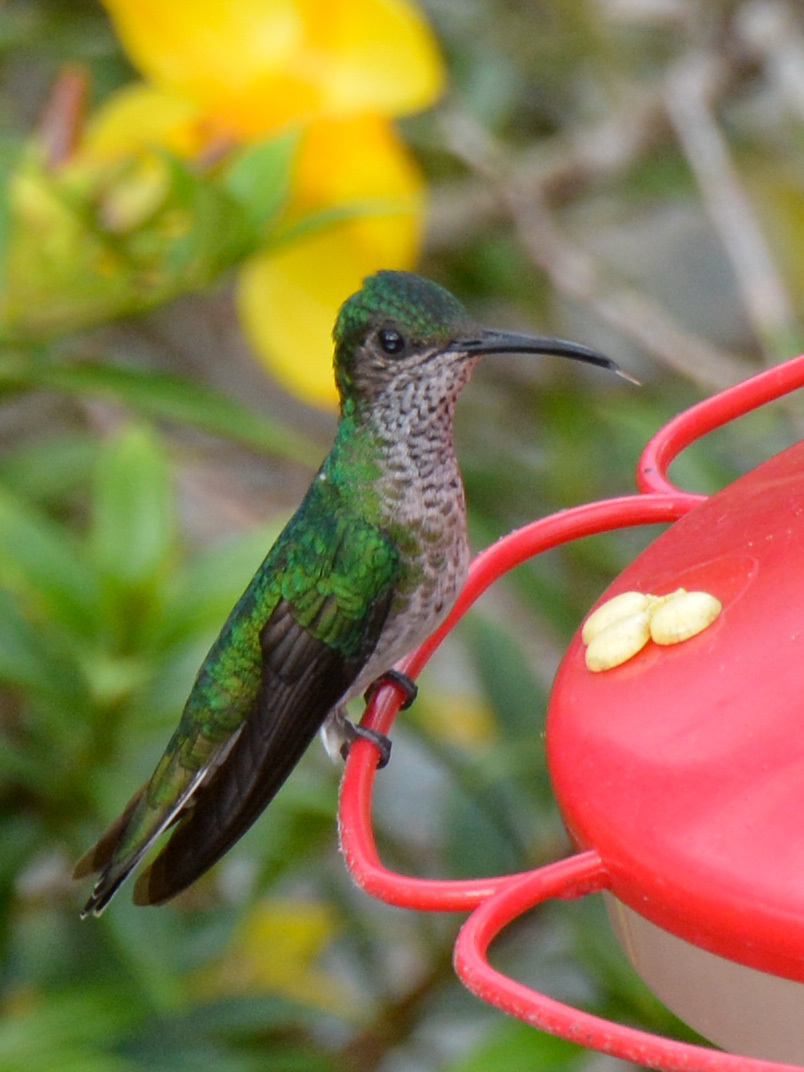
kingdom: Animalia
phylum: Chordata
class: Aves
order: Apodiformes
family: Trochilidae
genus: Florisuga
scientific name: Florisuga mellivora
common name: White-necked jacobin
